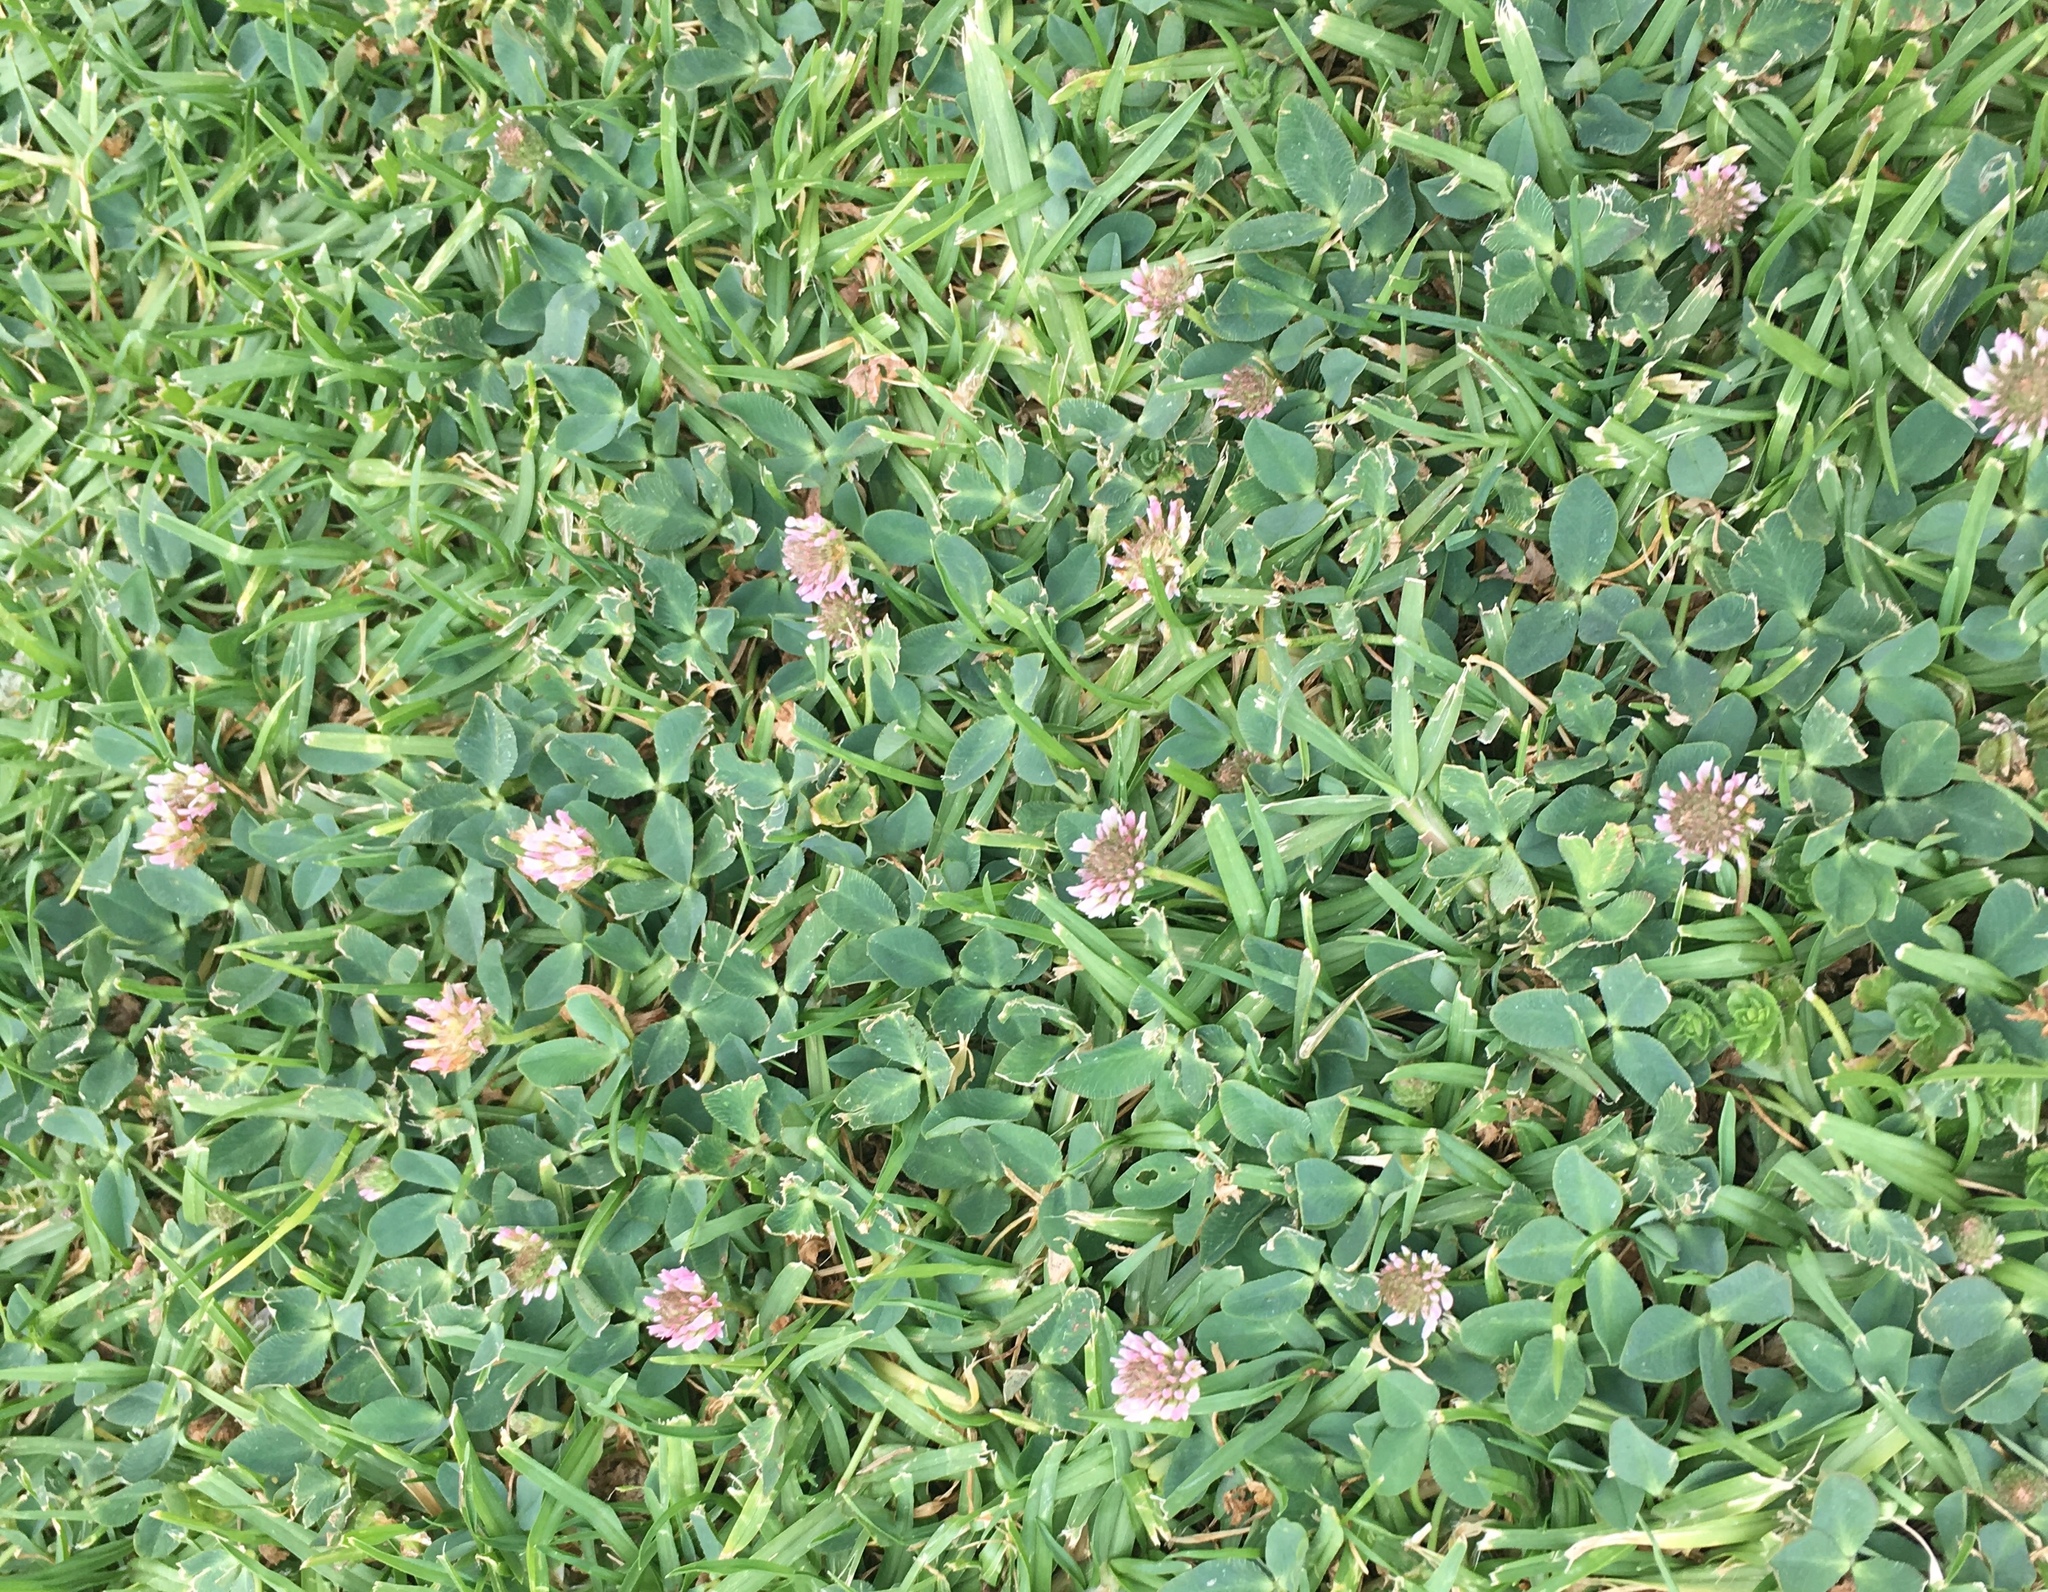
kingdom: Plantae
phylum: Tracheophyta
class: Magnoliopsida
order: Fabales
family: Fabaceae
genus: Trifolium
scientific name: Trifolium fragiferum
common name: Strawberry clover
